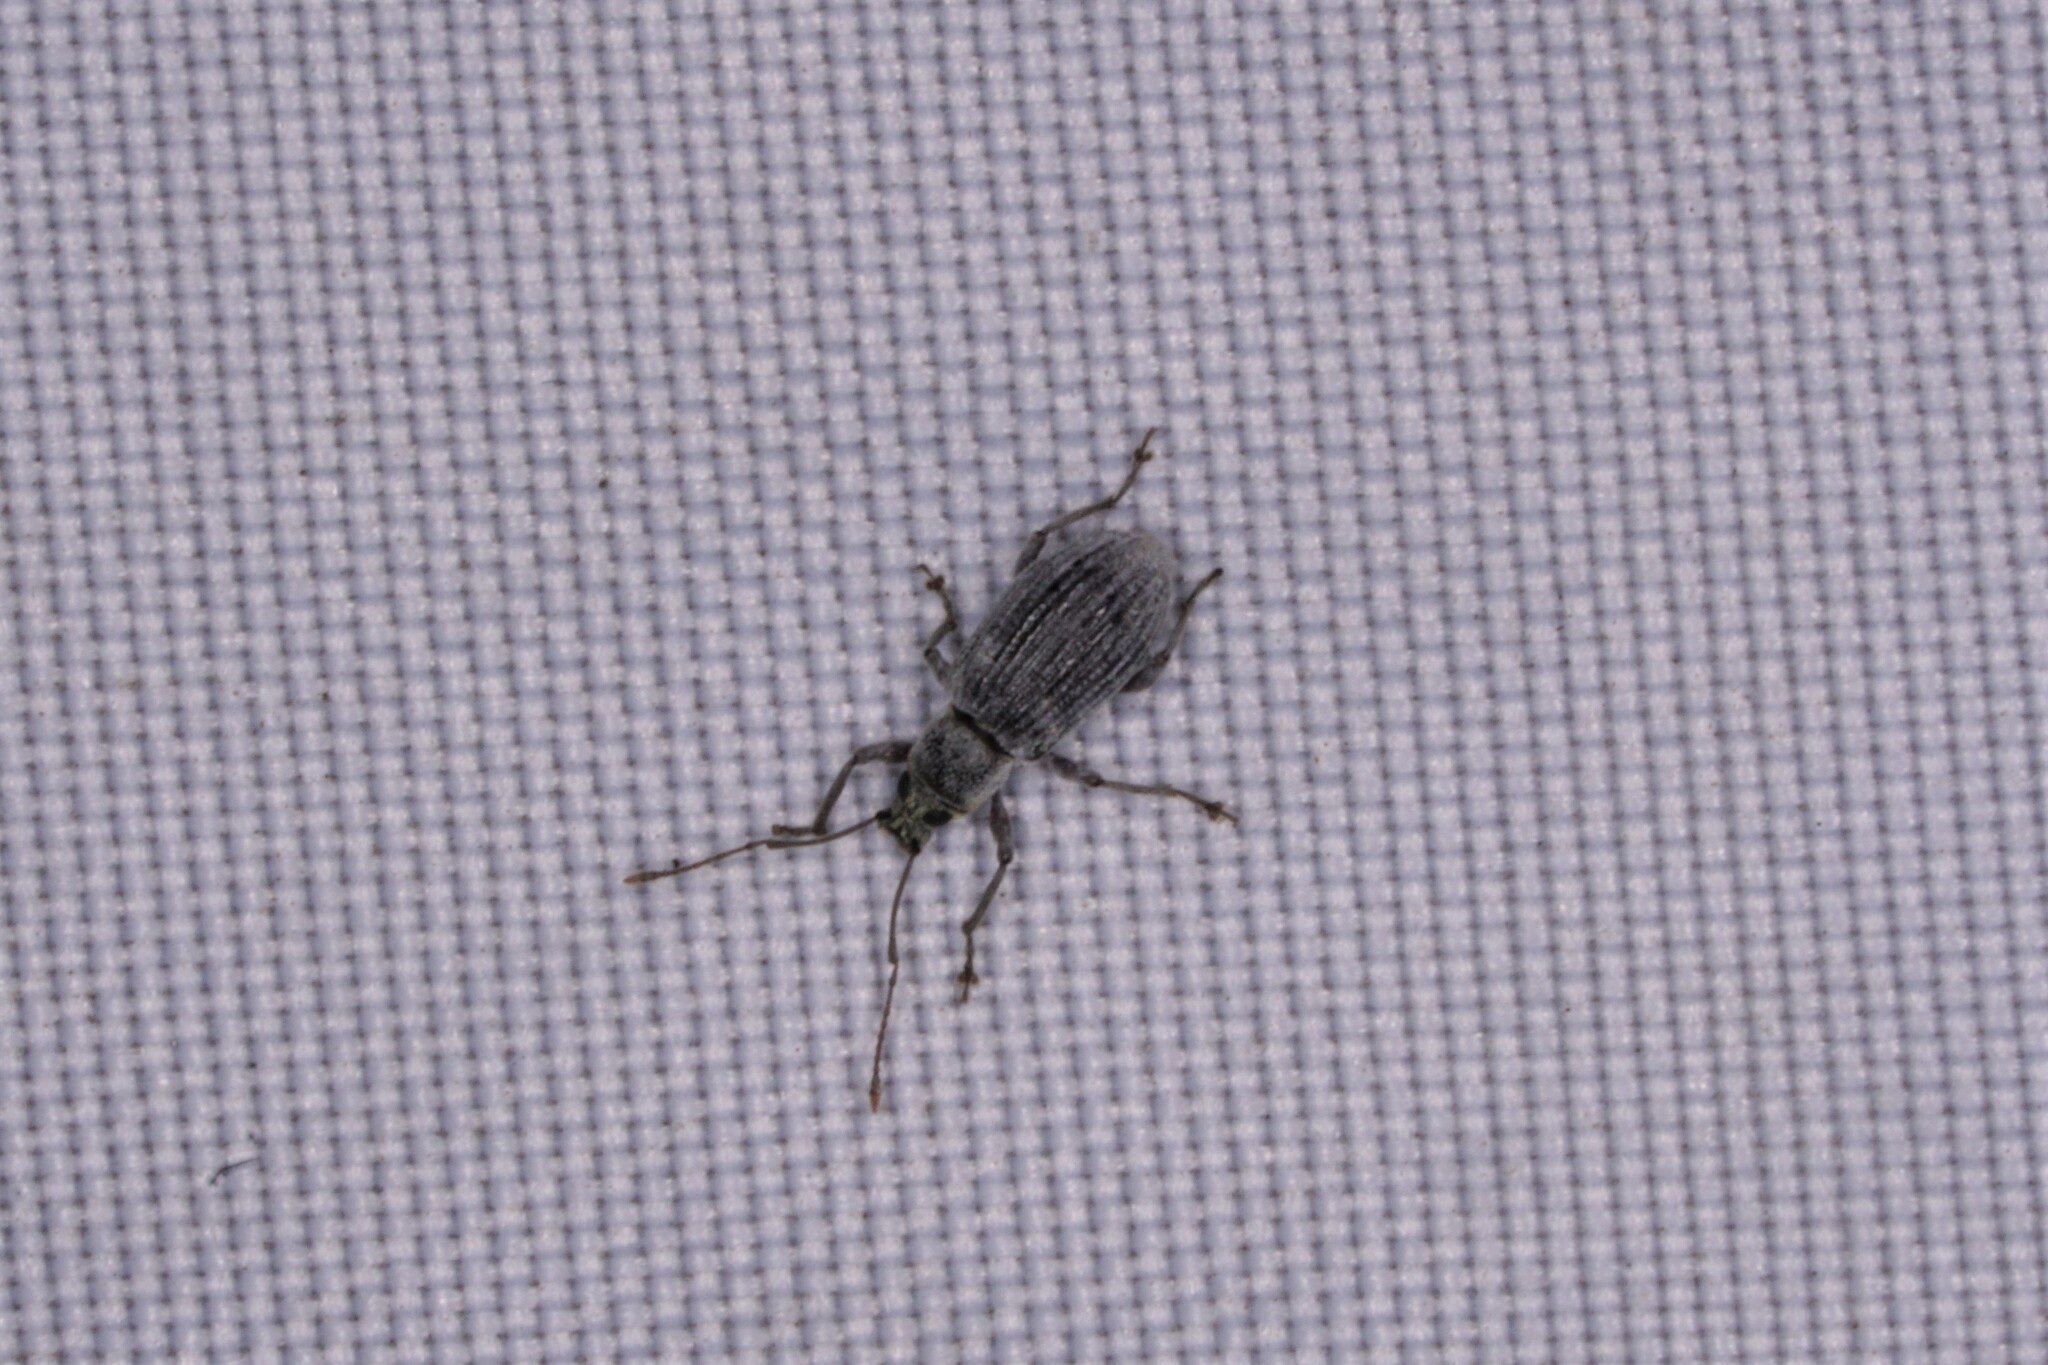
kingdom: Animalia
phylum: Arthropoda
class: Insecta
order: Coleoptera
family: Curculionidae
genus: Cyrtepistomus
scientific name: Cyrtepistomus castaneus
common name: Weevil
